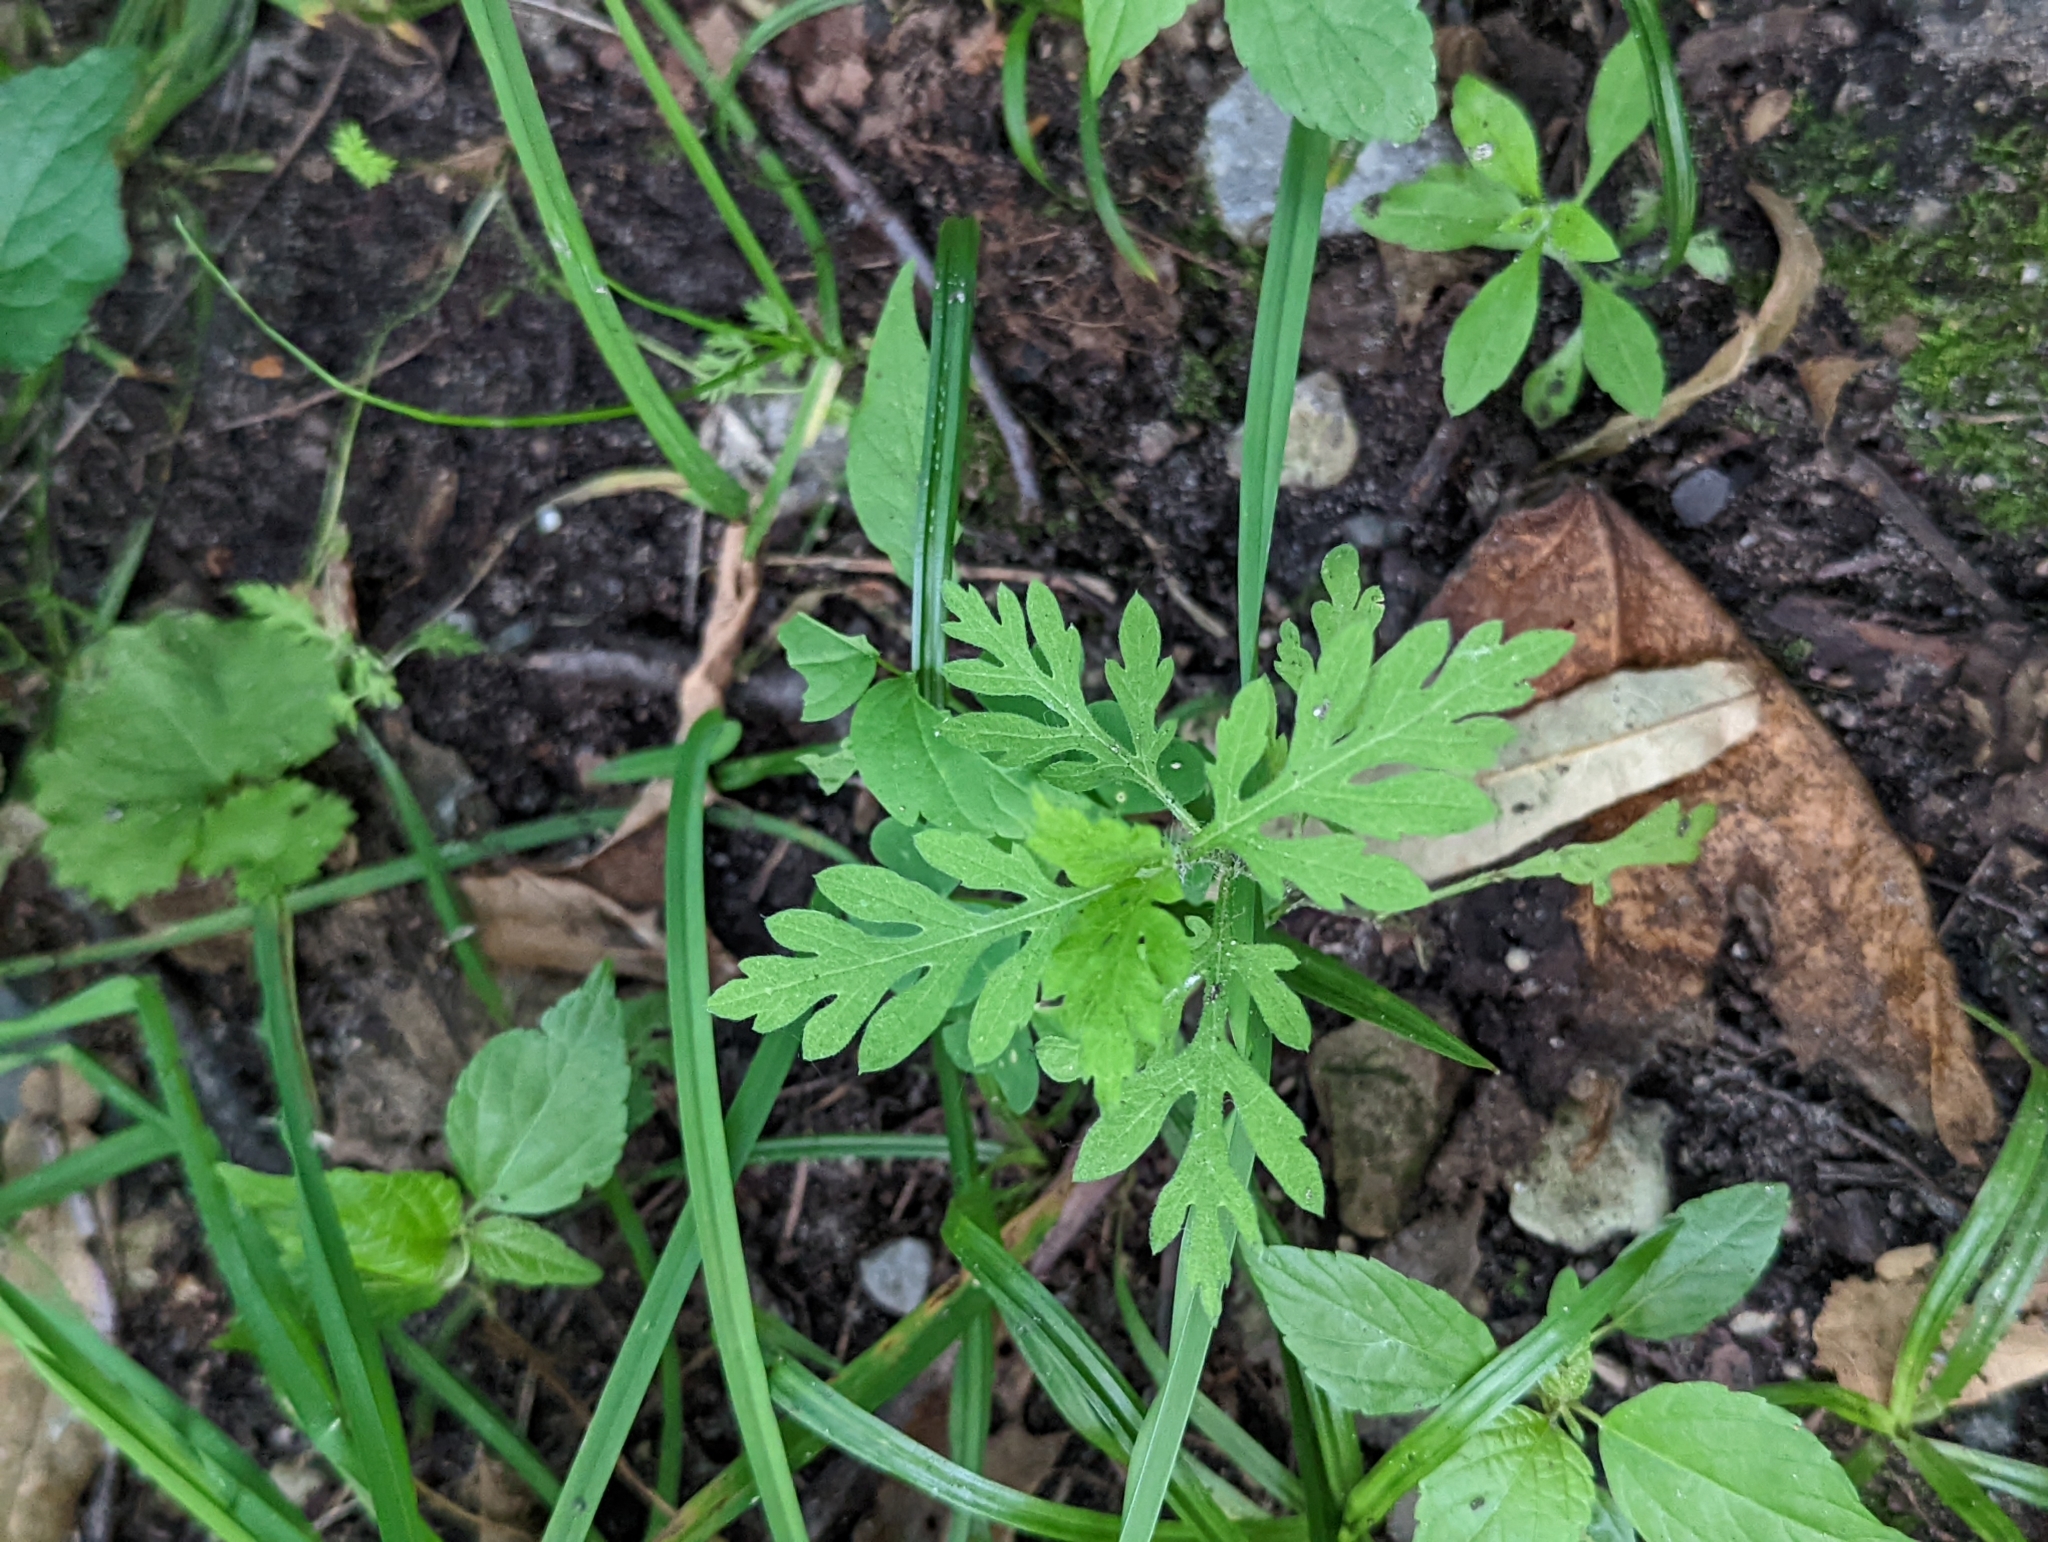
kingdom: Plantae
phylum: Tracheophyta
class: Magnoliopsida
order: Asterales
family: Asteraceae
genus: Ambrosia
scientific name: Ambrosia artemisiifolia
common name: Annual ragweed
